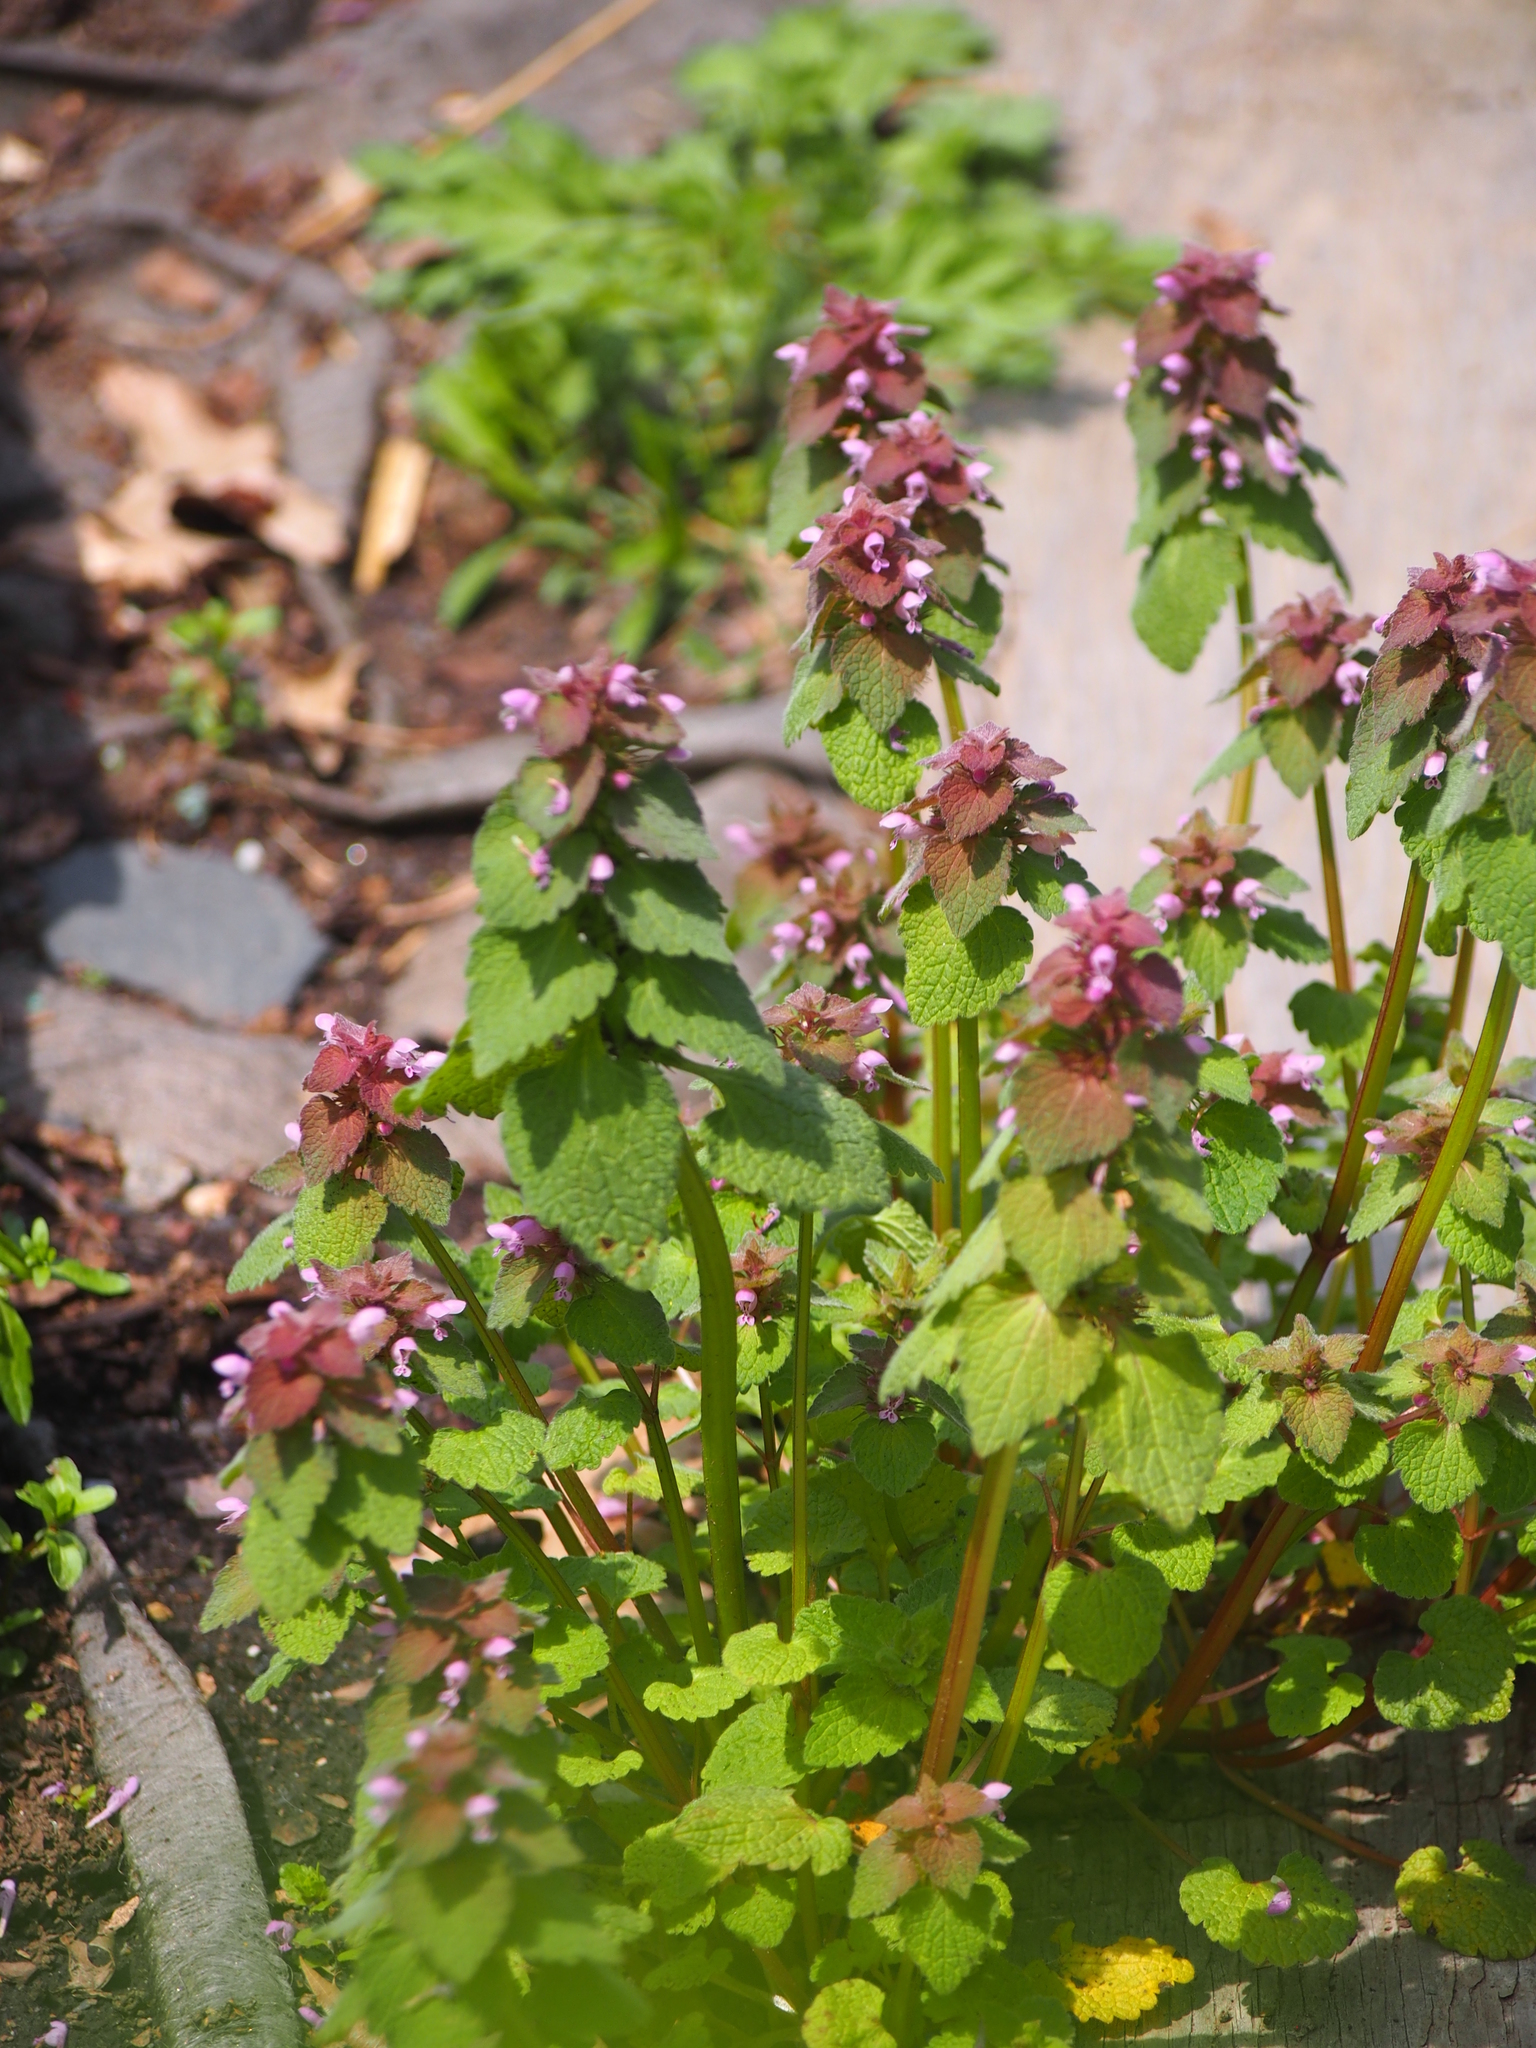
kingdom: Plantae
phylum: Tracheophyta
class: Magnoliopsida
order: Lamiales
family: Lamiaceae
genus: Lamium
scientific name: Lamium purpureum
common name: Red dead-nettle
